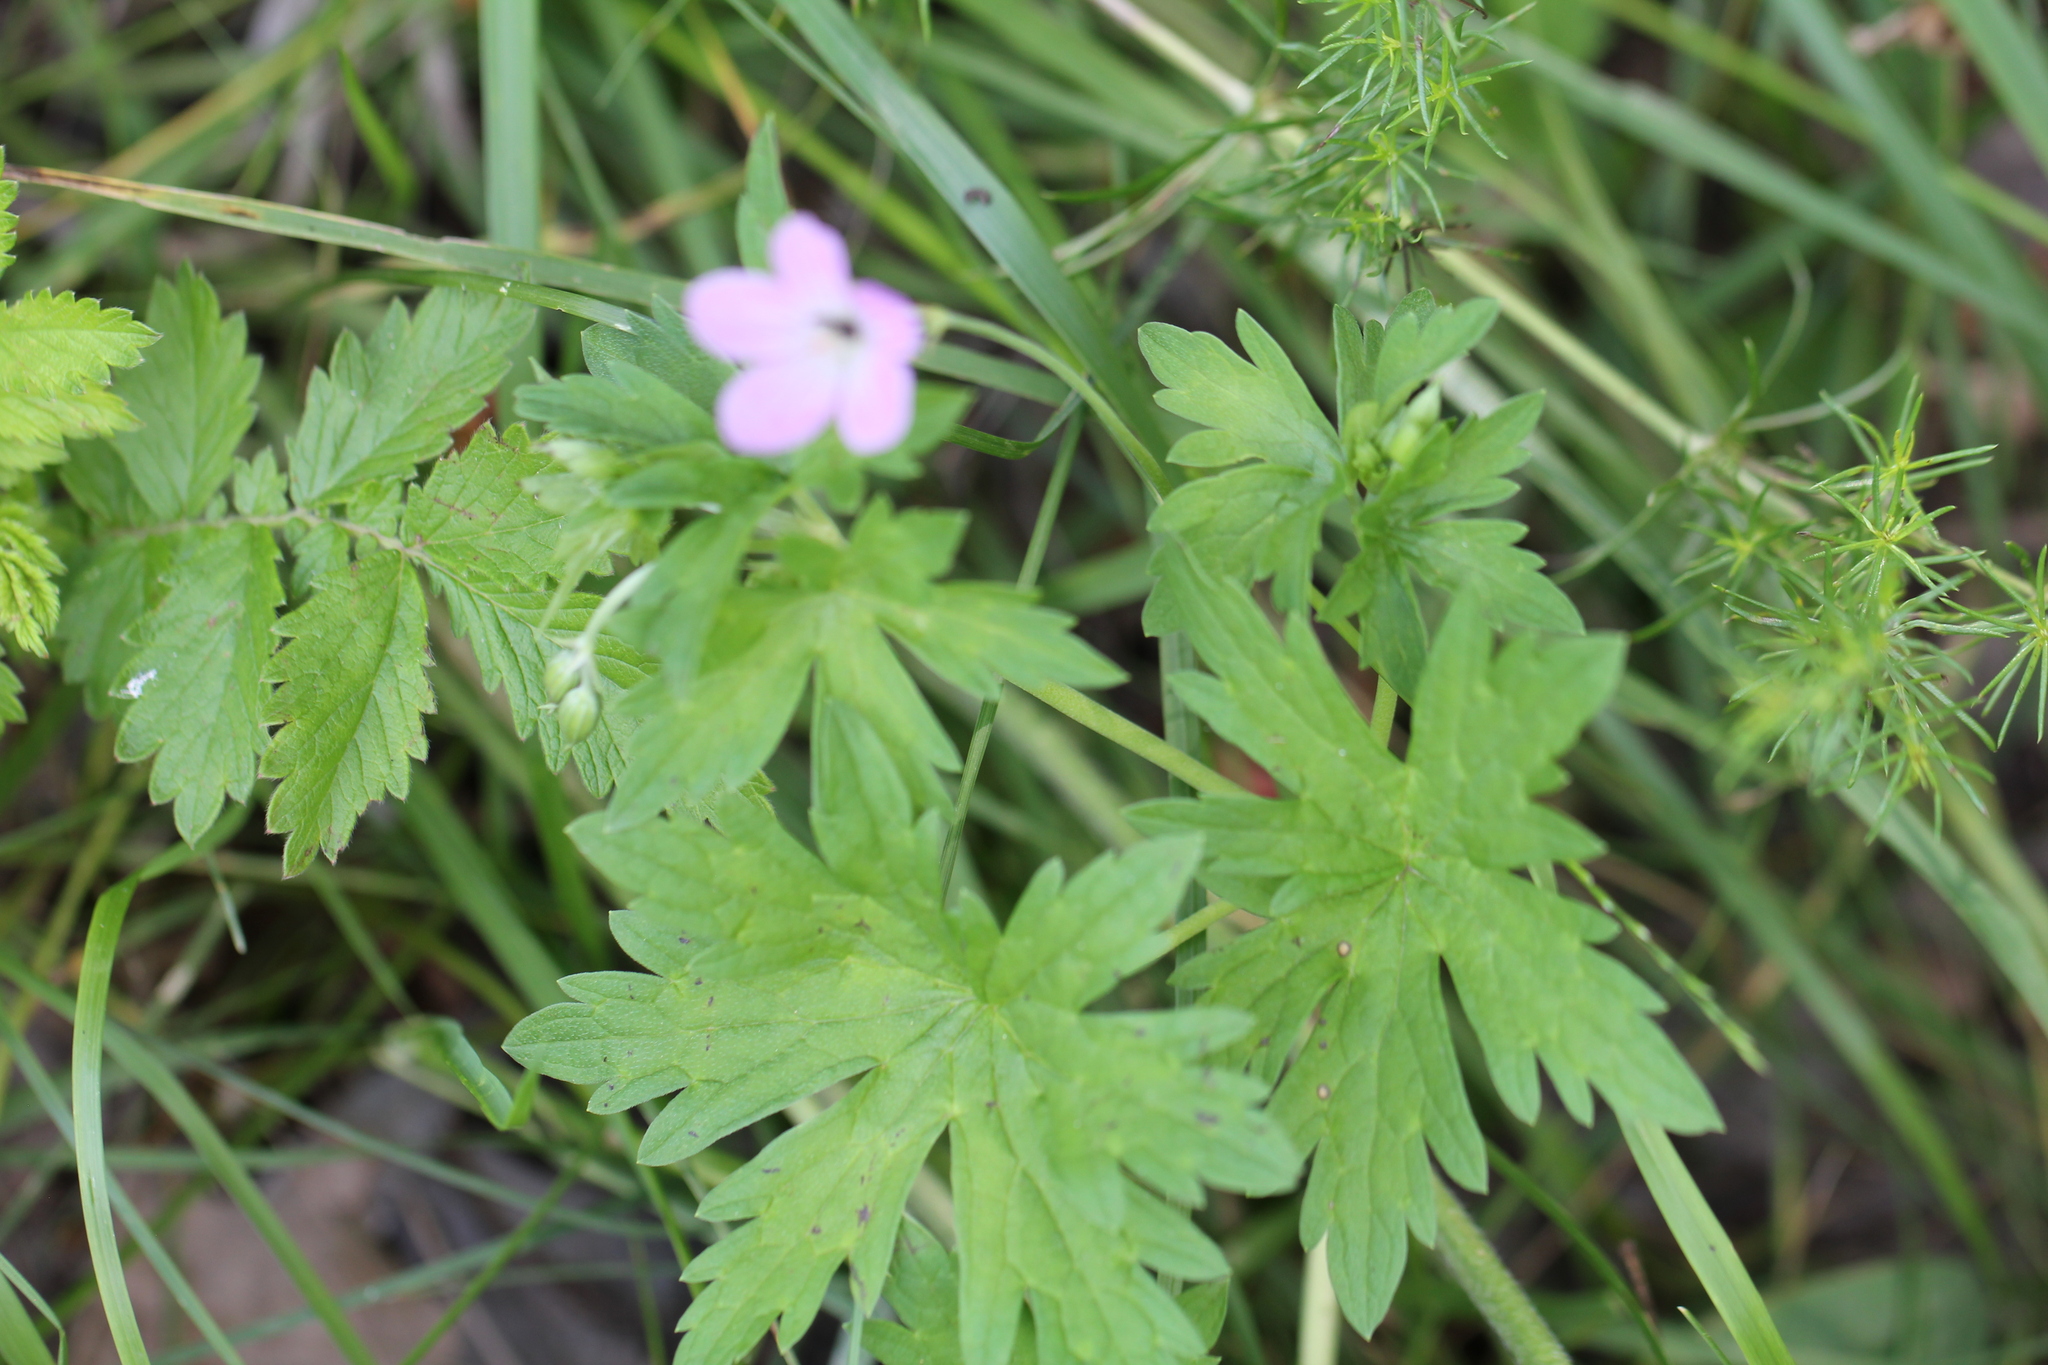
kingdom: Plantae
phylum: Tracheophyta
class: Magnoliopsida
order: Geraniales
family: Geraniaceae
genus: Geranium
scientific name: Geranium collinum
